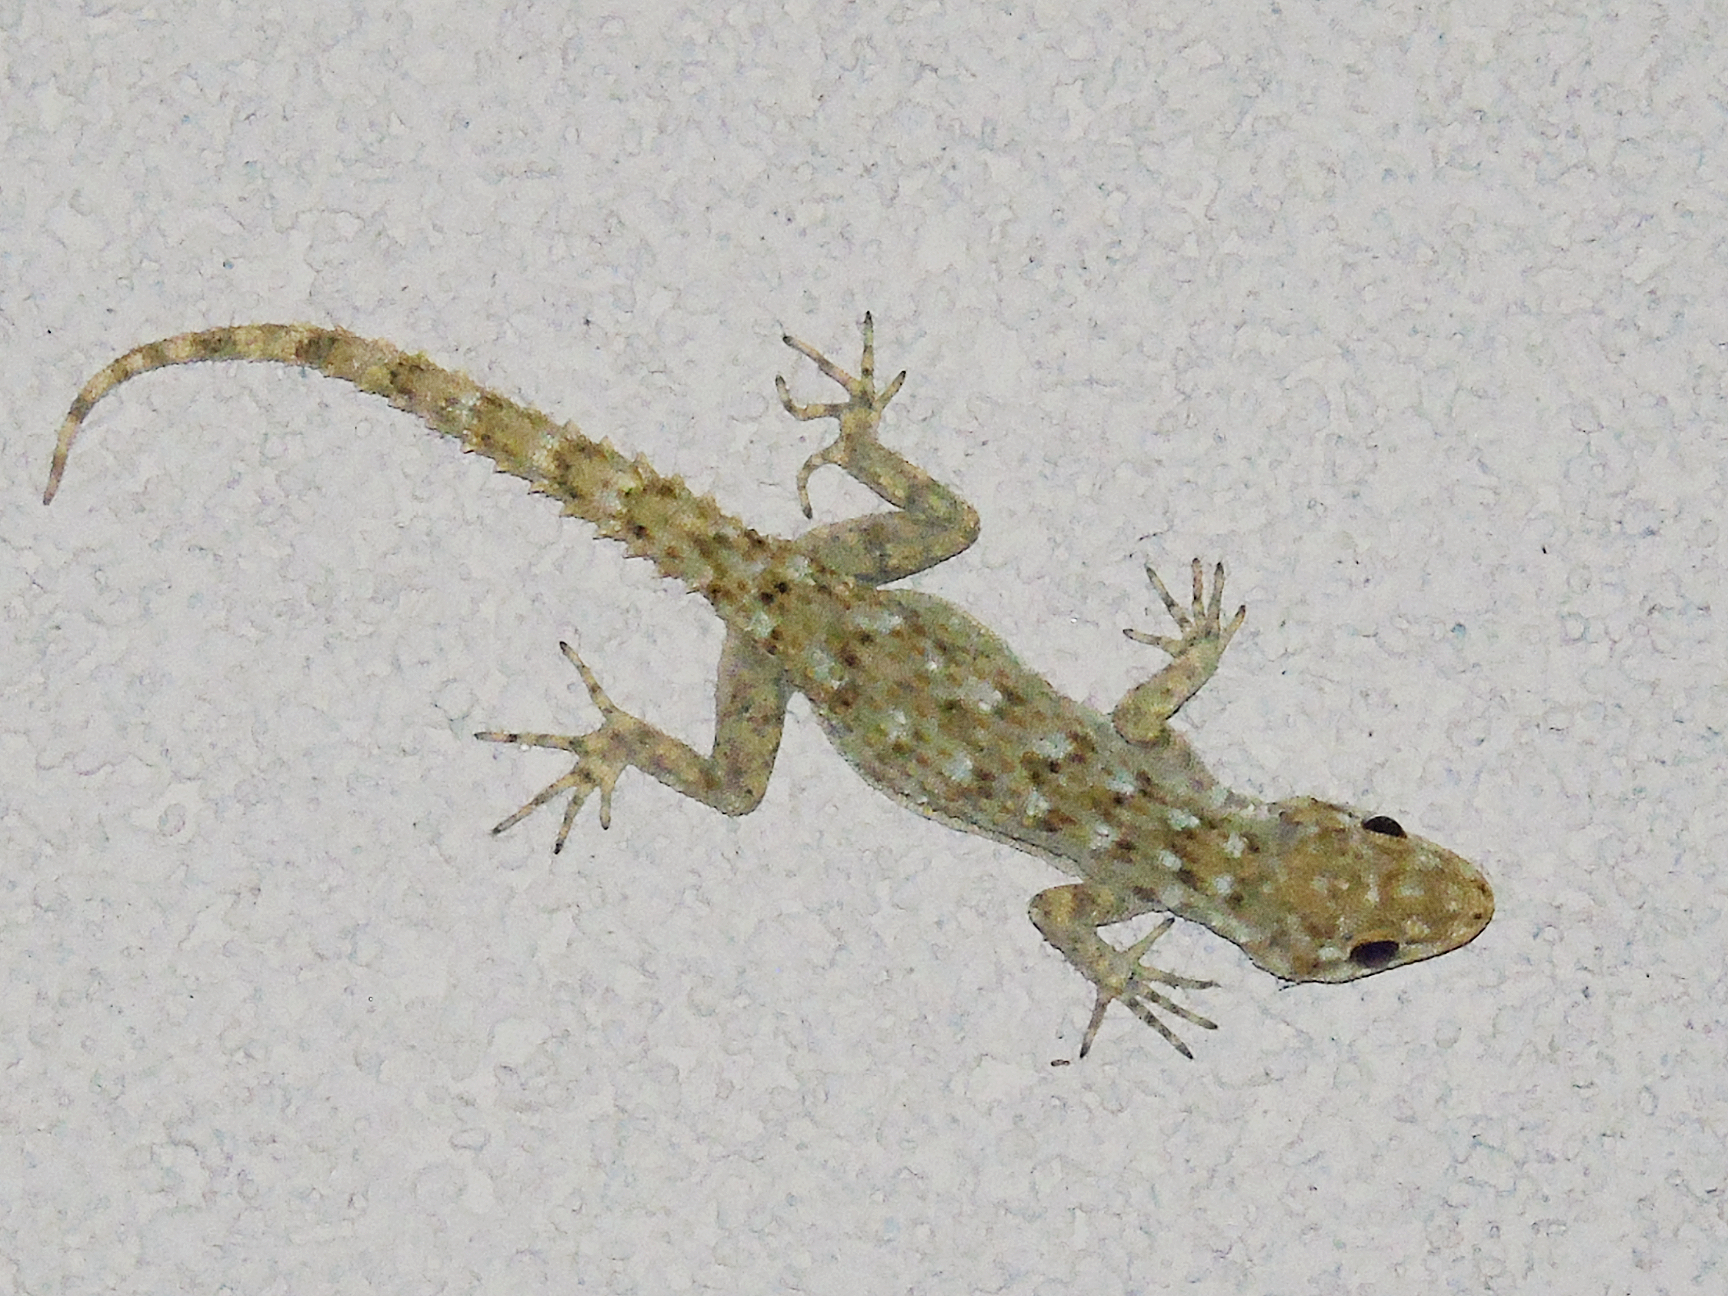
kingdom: Animalia
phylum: Chordata
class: Squamata
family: Gekkonidae
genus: Mediodactylus
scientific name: Mediodactylus kotschyi
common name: Kotschy's gecko
